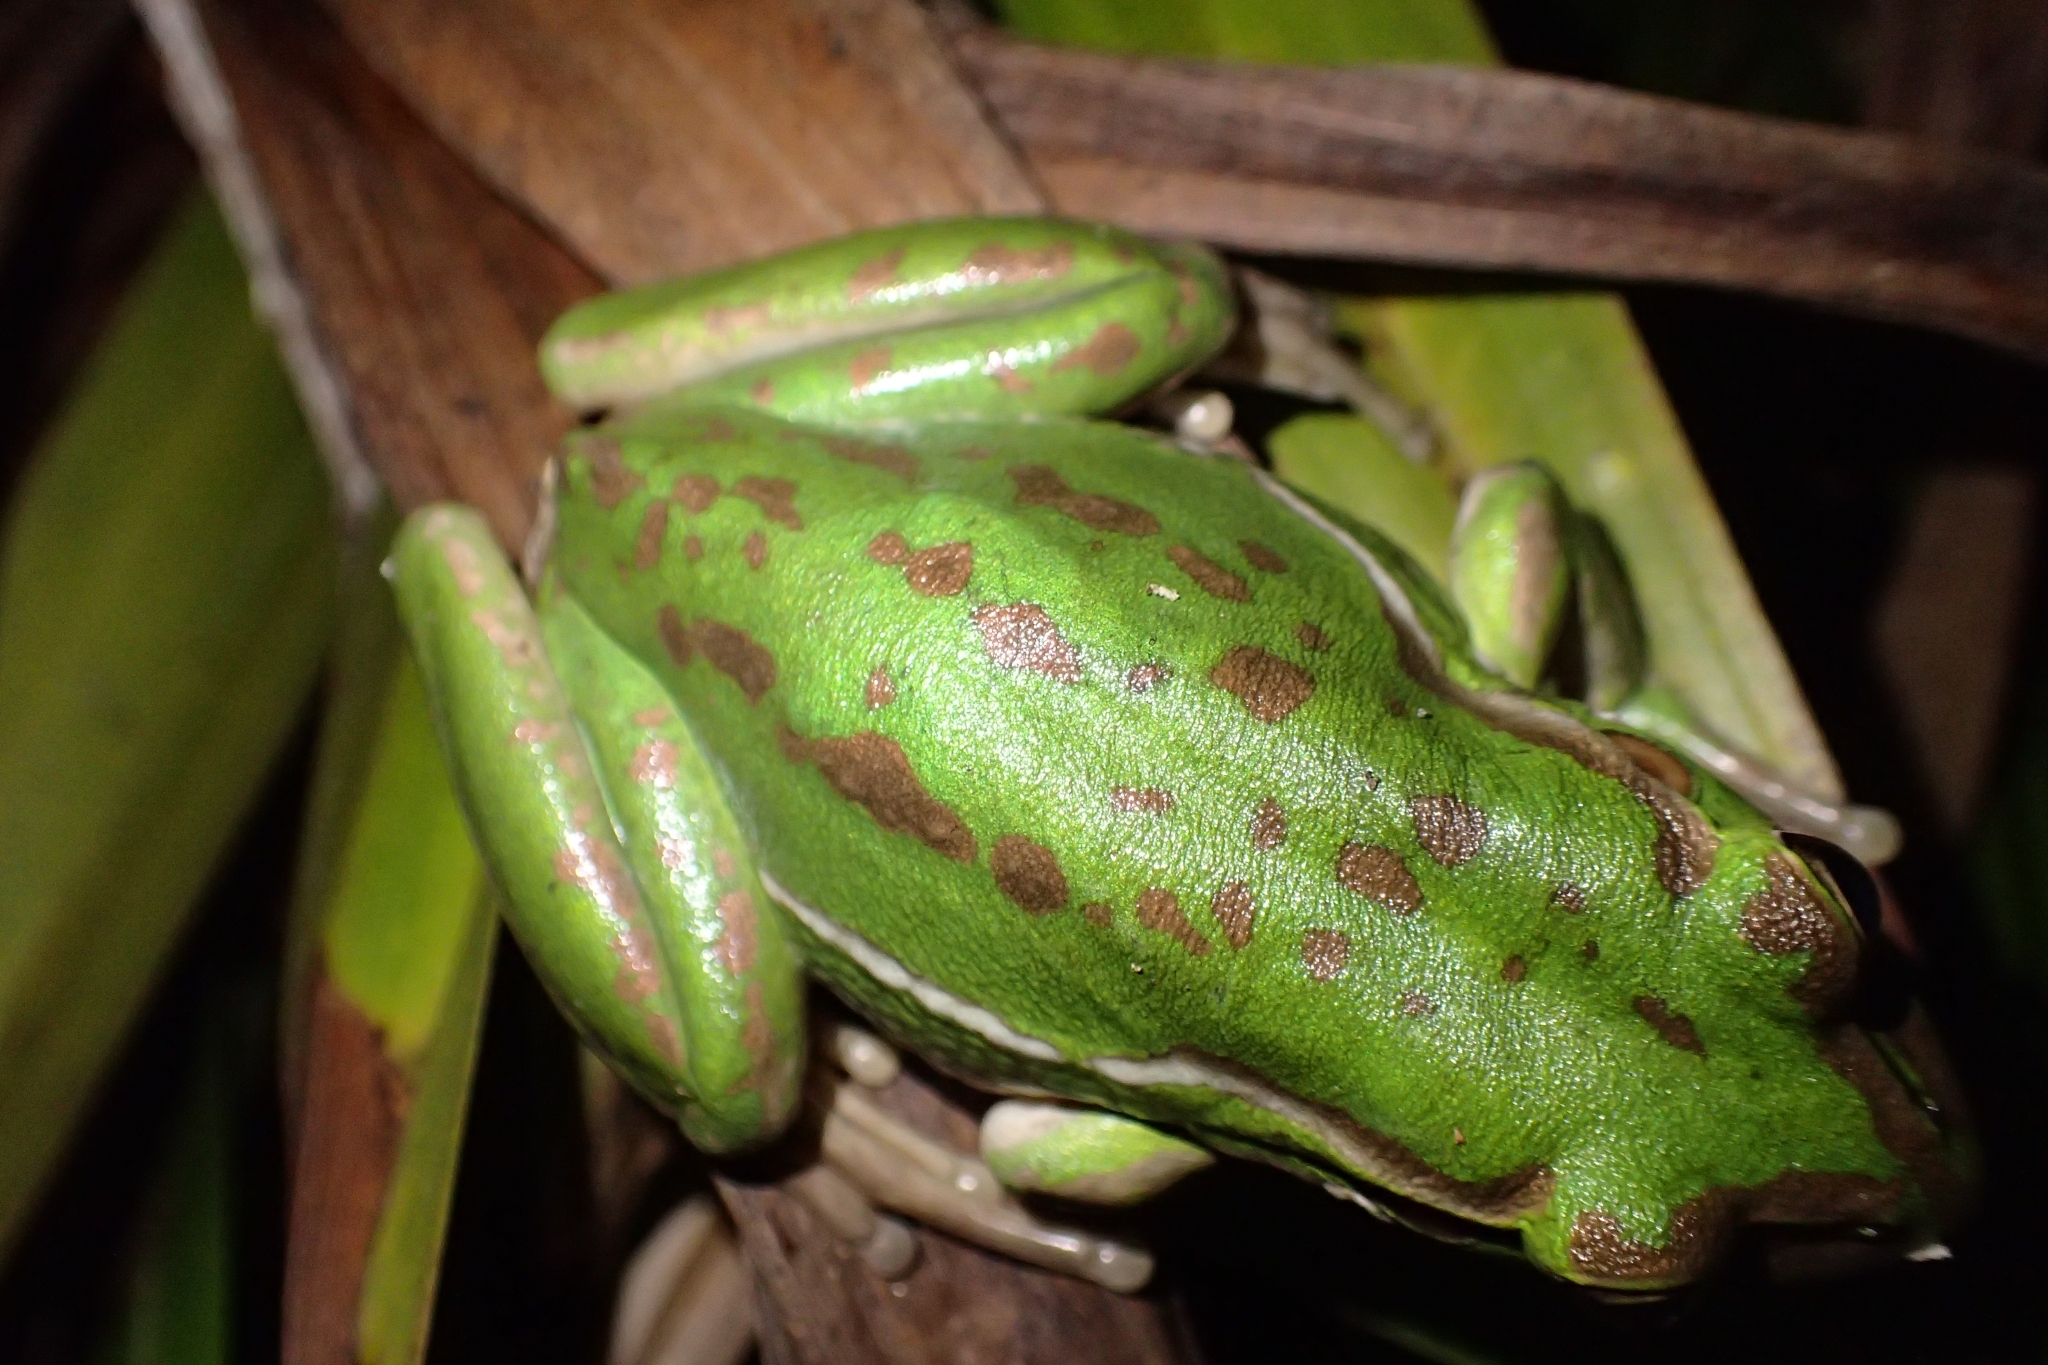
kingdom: Animalia
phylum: Chordata
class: Amphibia
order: Anura
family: Pelodryadidae
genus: Ranoidea
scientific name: Ranoidea aurea
